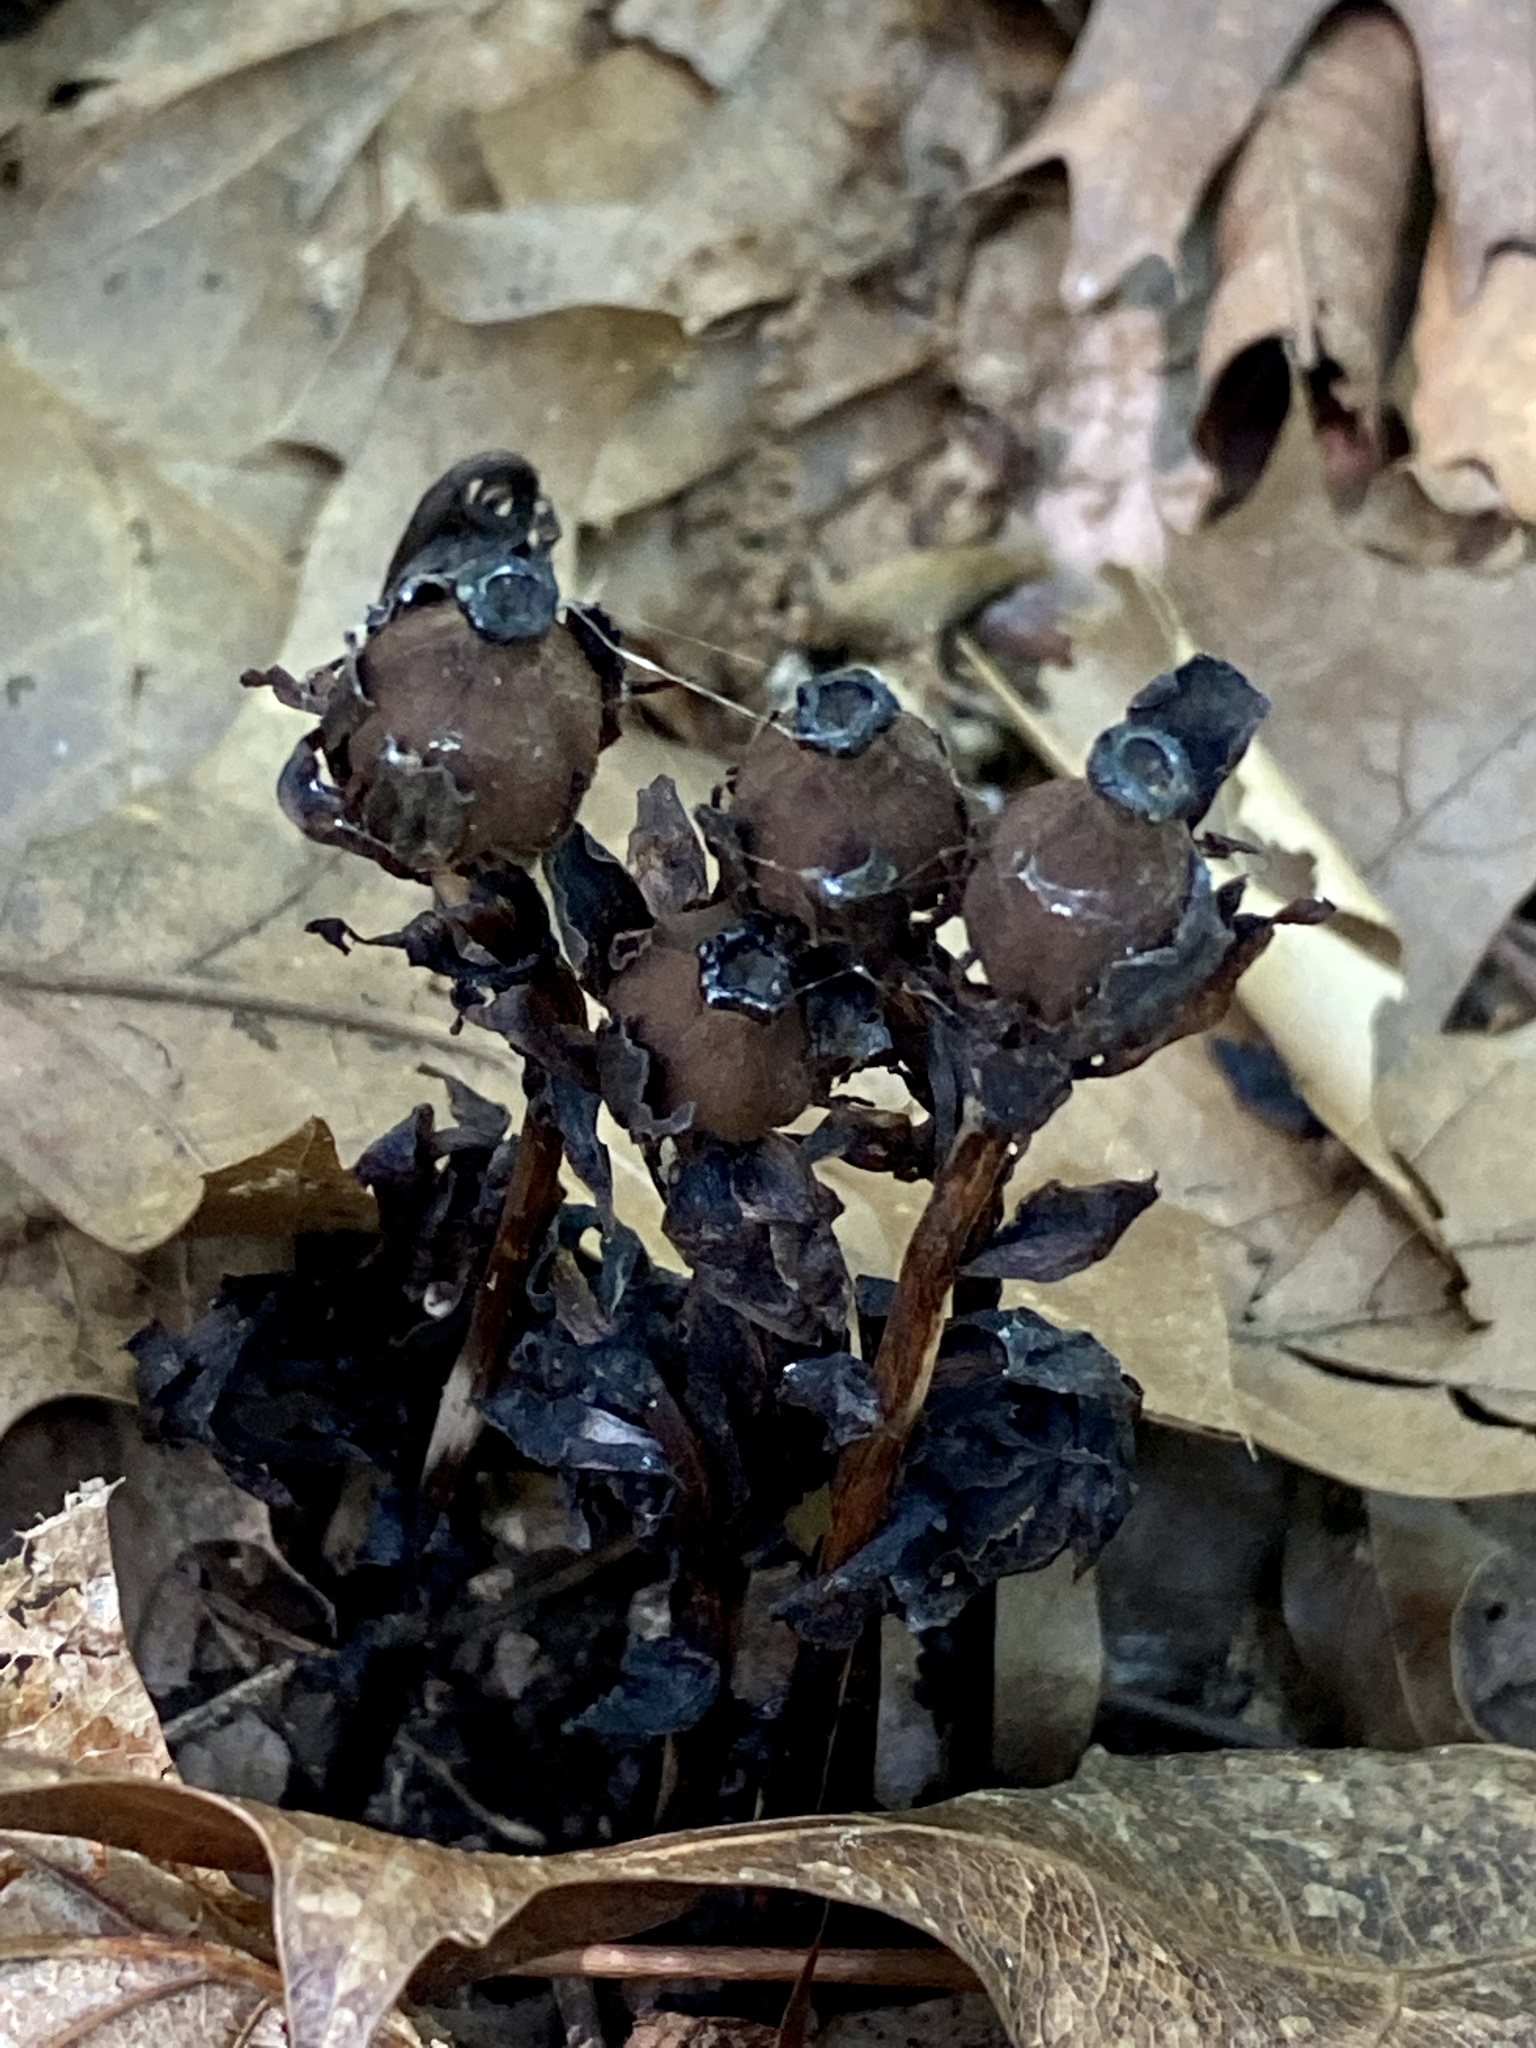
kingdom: Plantae
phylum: Tracheophyta
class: Magnoliopsida
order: Ericales
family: Ericaceae
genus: Monotropa
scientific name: Monotropa uniflora
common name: Convulsion root
